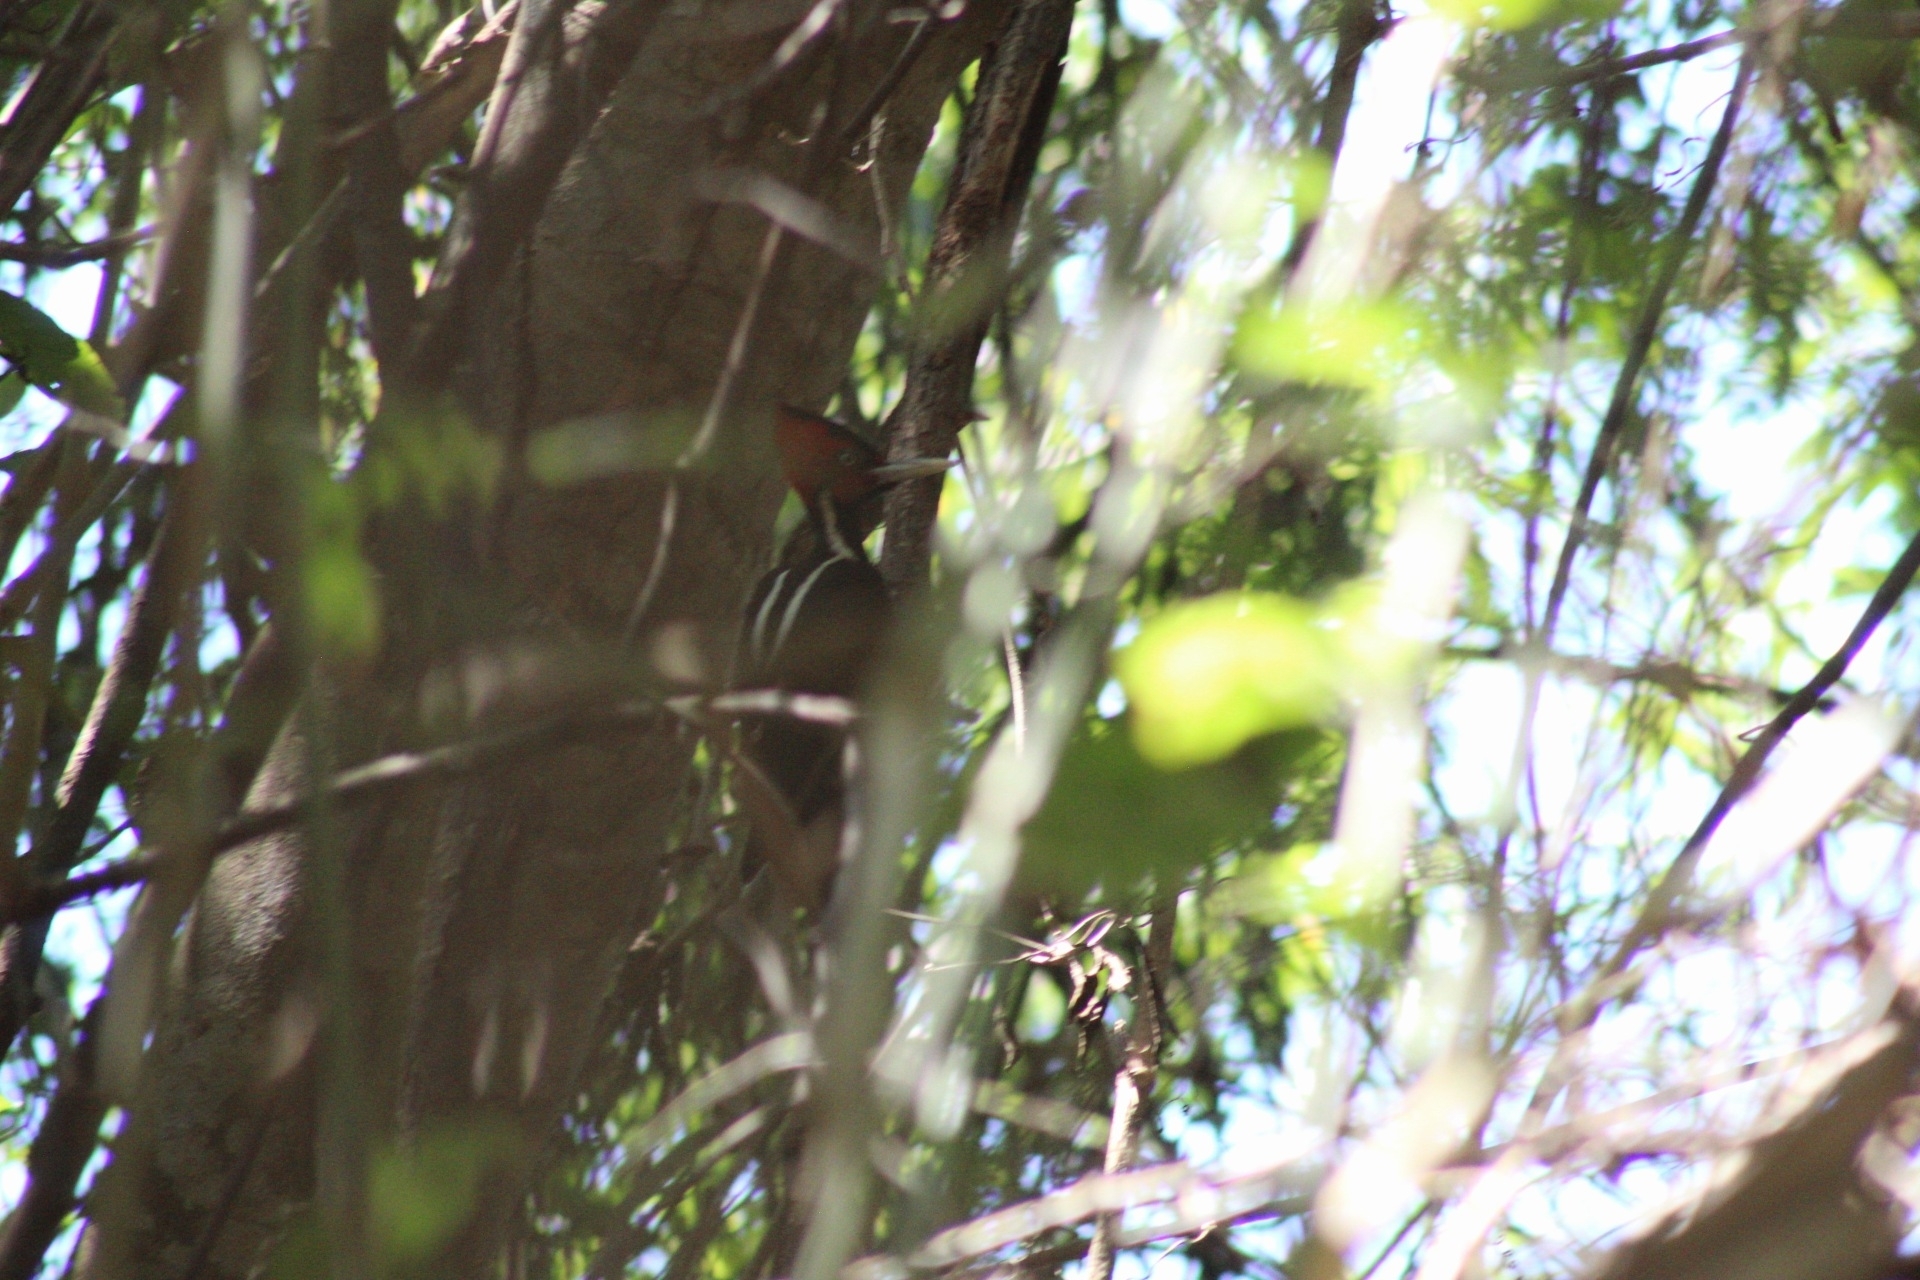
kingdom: Animalia
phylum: Chordata
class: Aves
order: Piciformes
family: Picidae
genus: Campephilus
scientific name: Campephilus guatemalensis
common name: Pale-billed woodpecker
